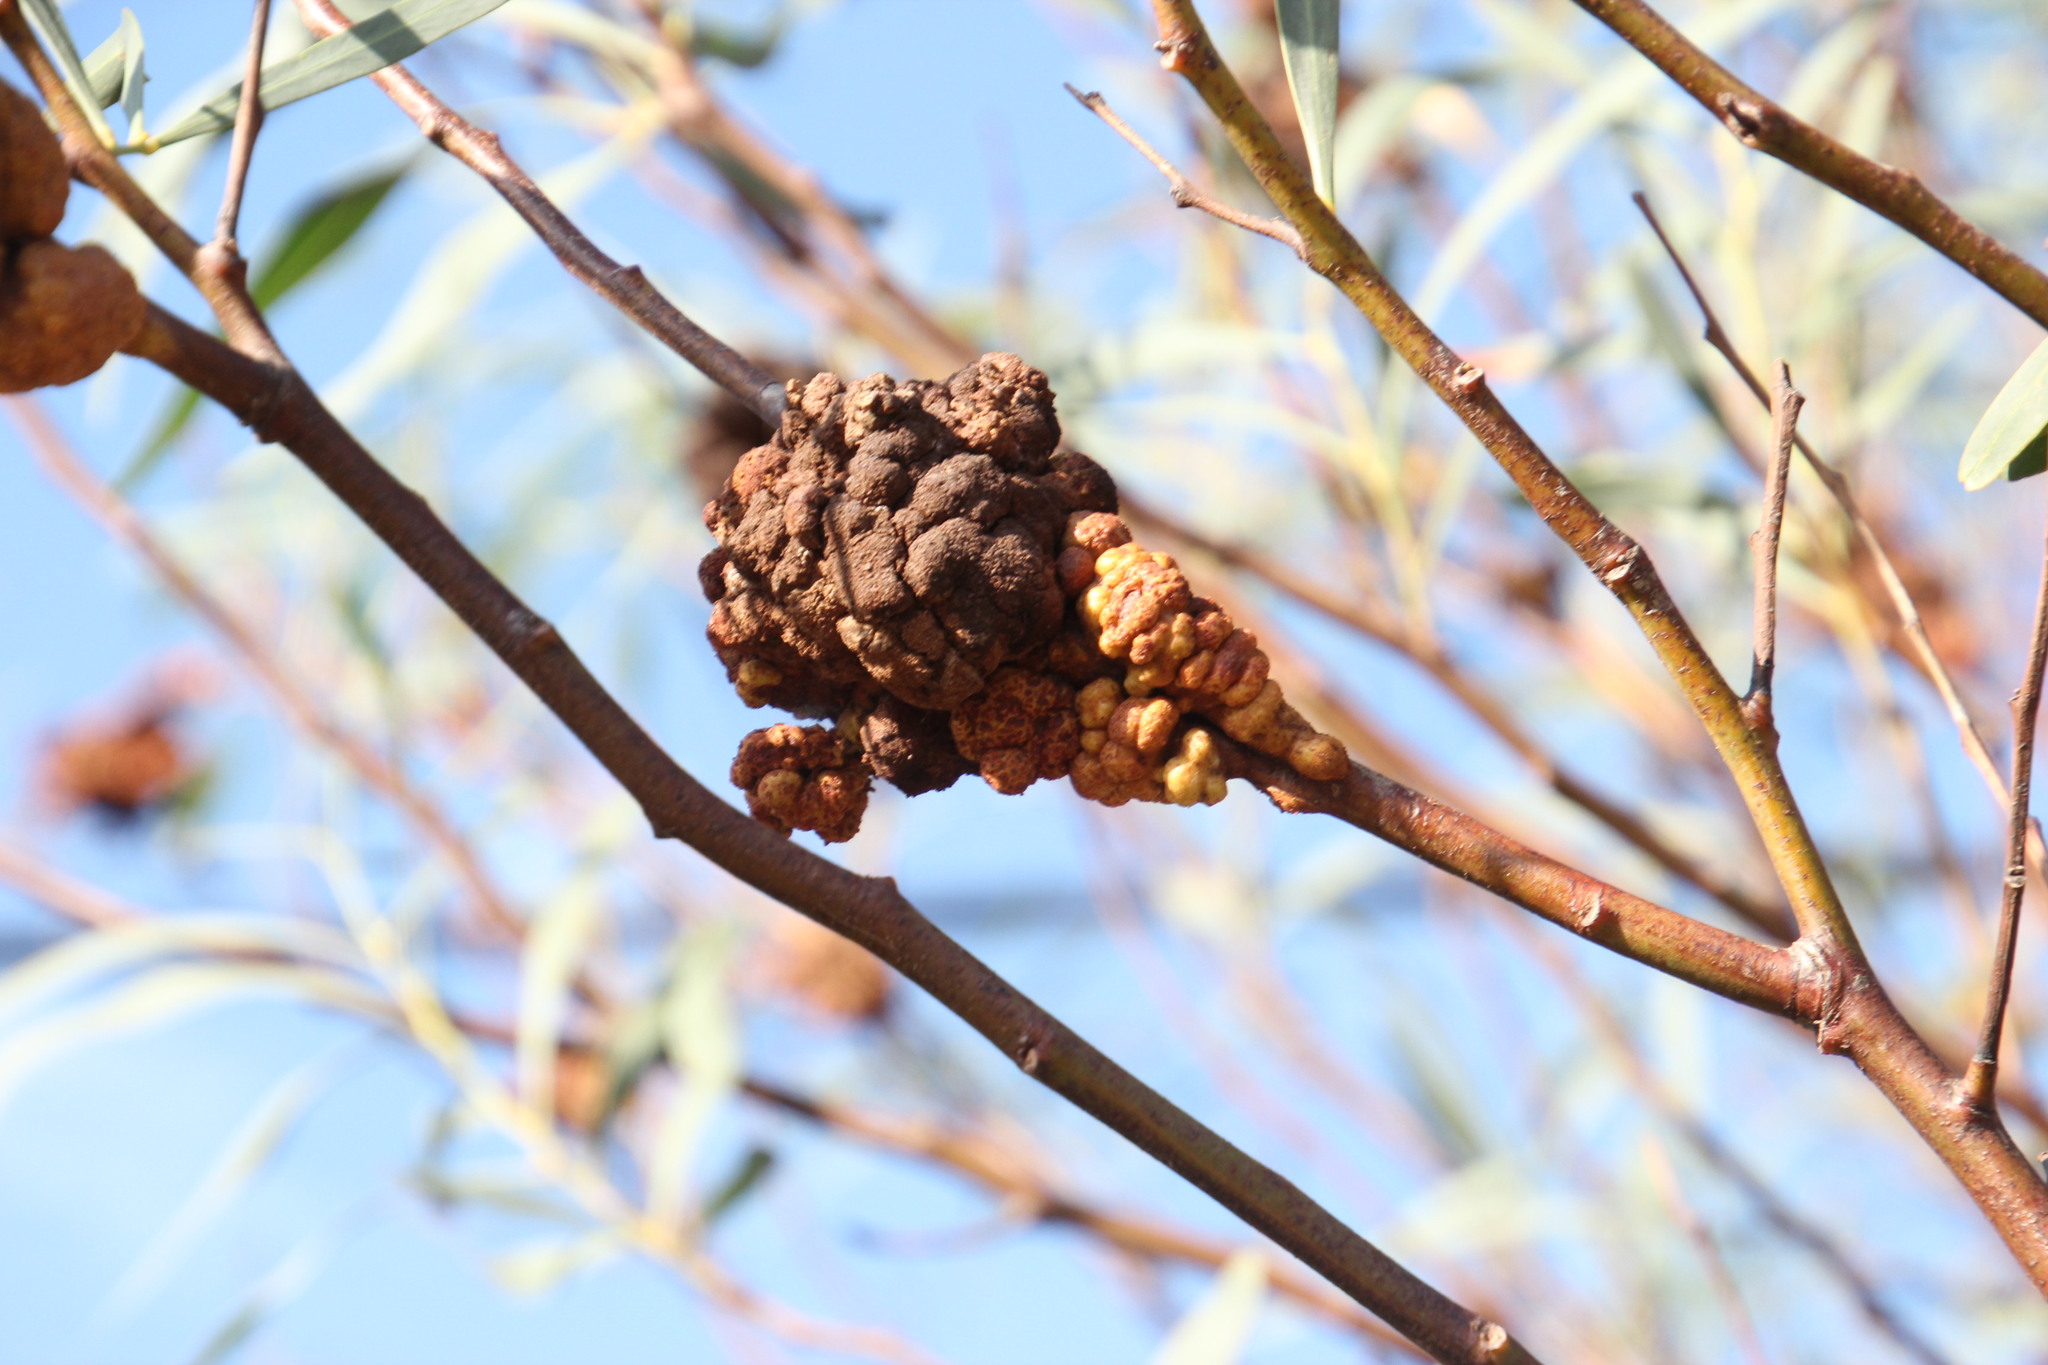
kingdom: Plantae
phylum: Tracheophyta
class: Magnoliopsida
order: Fabales
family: Fabaceae
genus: Acacia
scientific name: Acacia saligna
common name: Orange wattle
